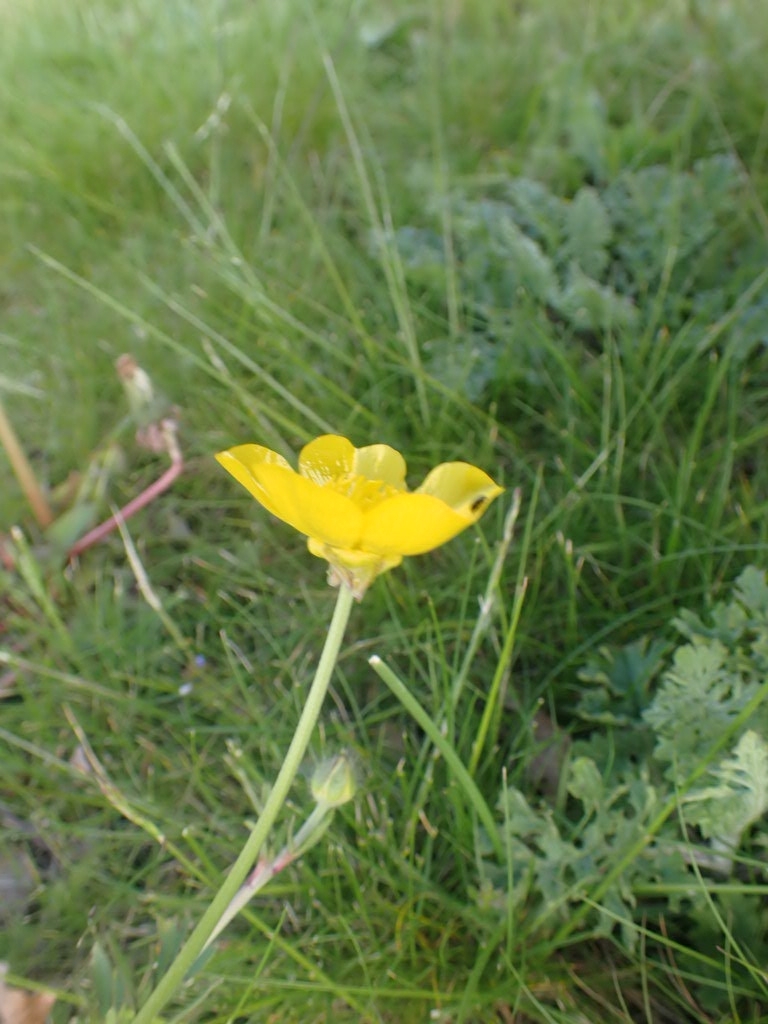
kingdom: Plantae
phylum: Tracheophyta
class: Magnoliopsida
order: Ranunculales
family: Ranunculaceae
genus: Ranunculus
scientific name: Ranunculus bulbosus
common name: Bulbous buttercup
